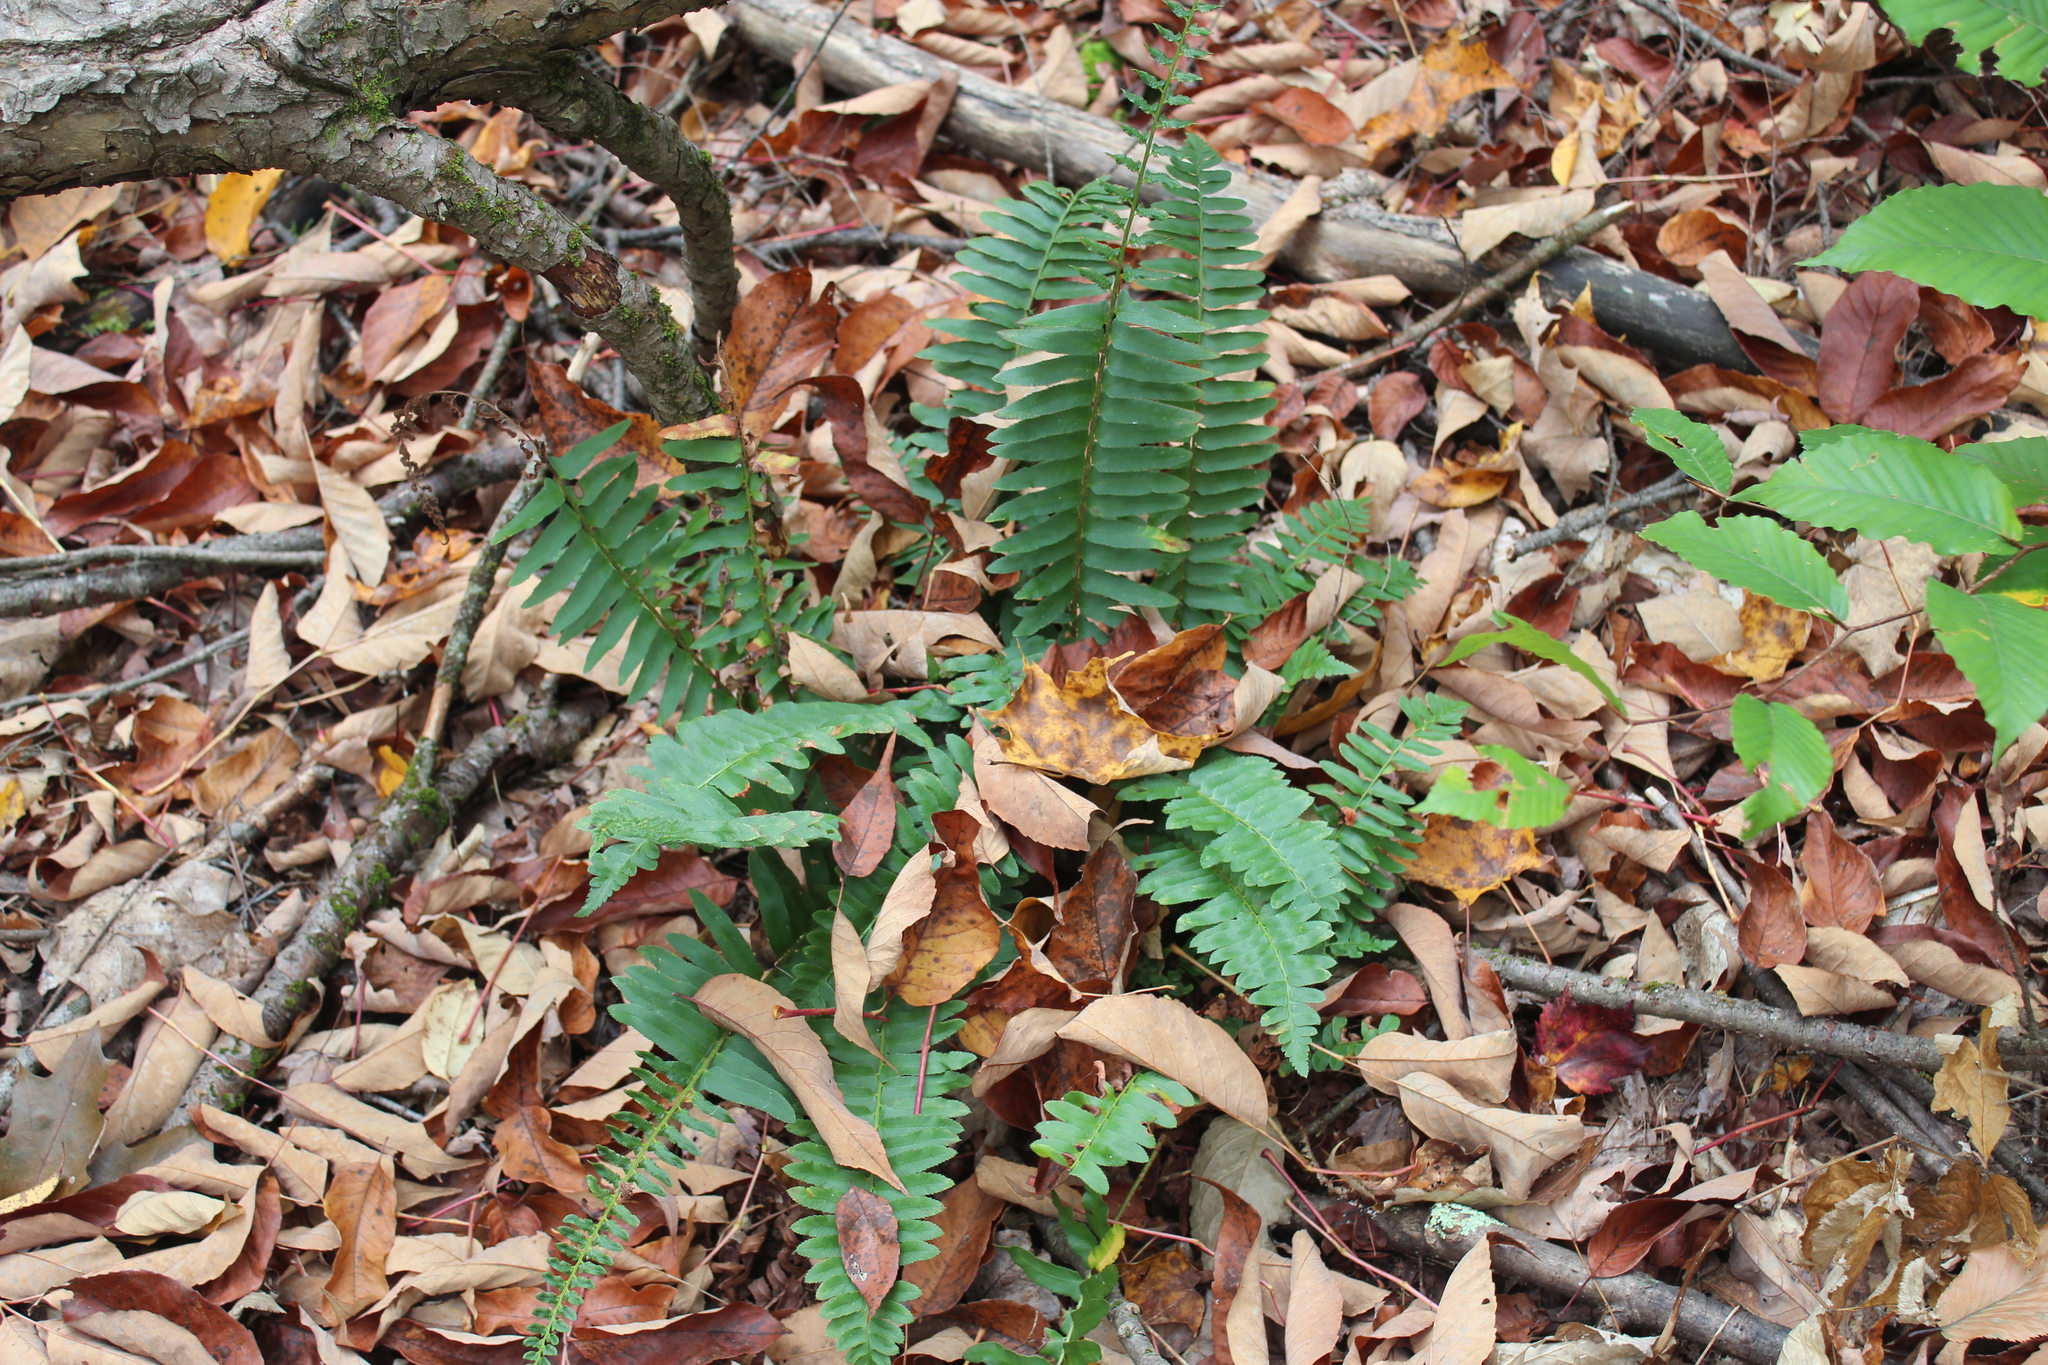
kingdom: Plantae
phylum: Tracheophyta
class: Polypodiopsida
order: Polypodiales
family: Dryopteridaceae
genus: Polystichum
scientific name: Polystichum acrostichoides
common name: Christmas fern
